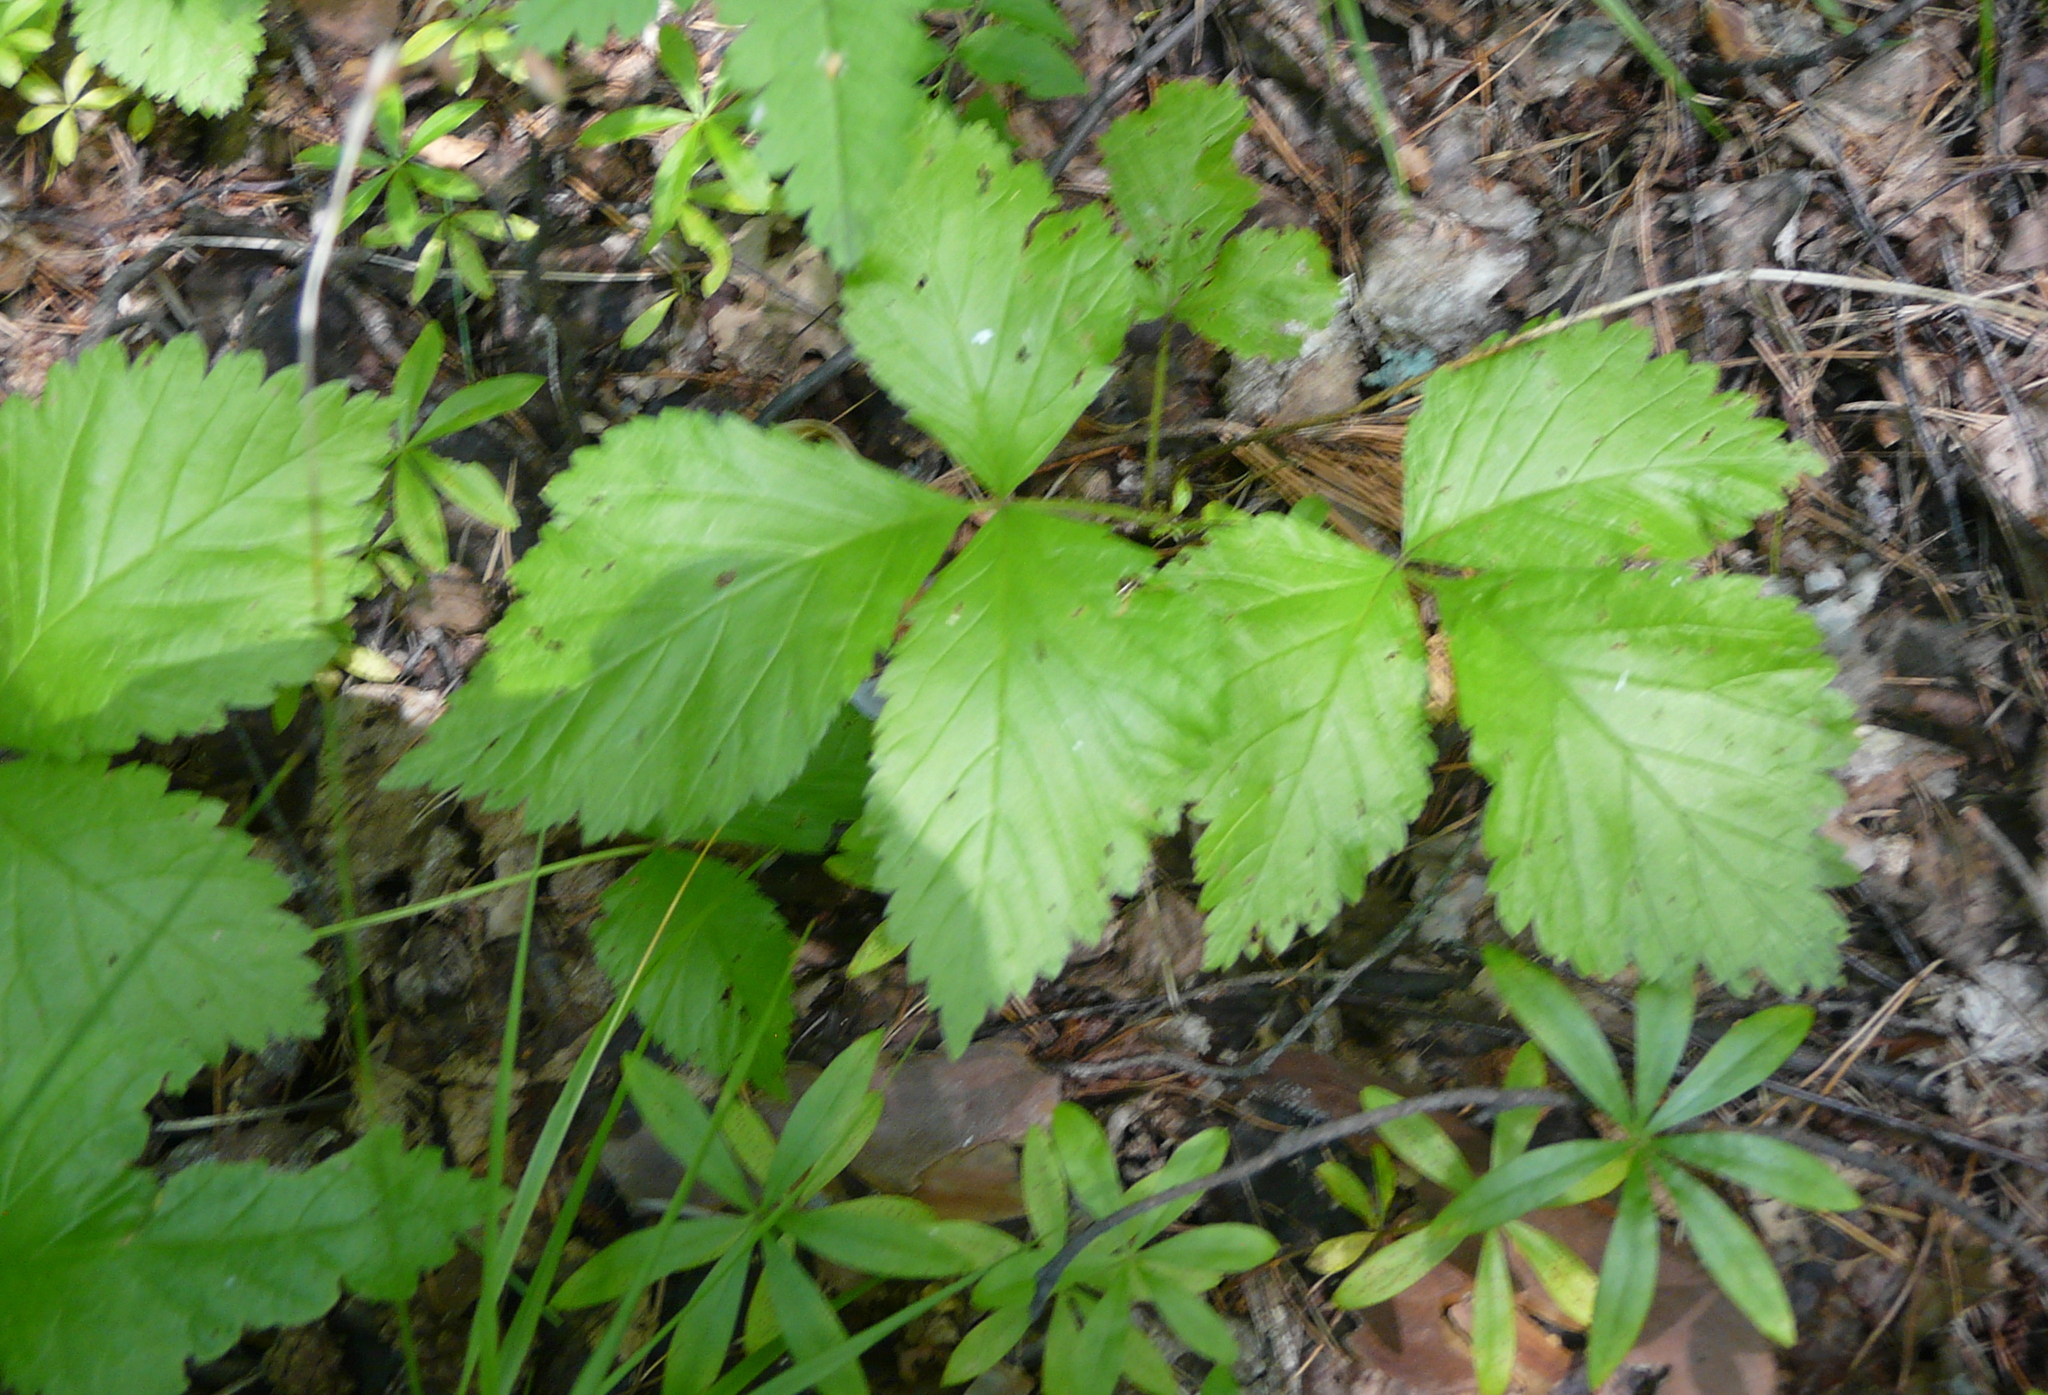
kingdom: Plantae
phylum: Tracheophyta
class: Magnoliopsida
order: Rosales
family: Rosaceae
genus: Rubus
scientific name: Rubus saxatilis
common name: Stone bramble
